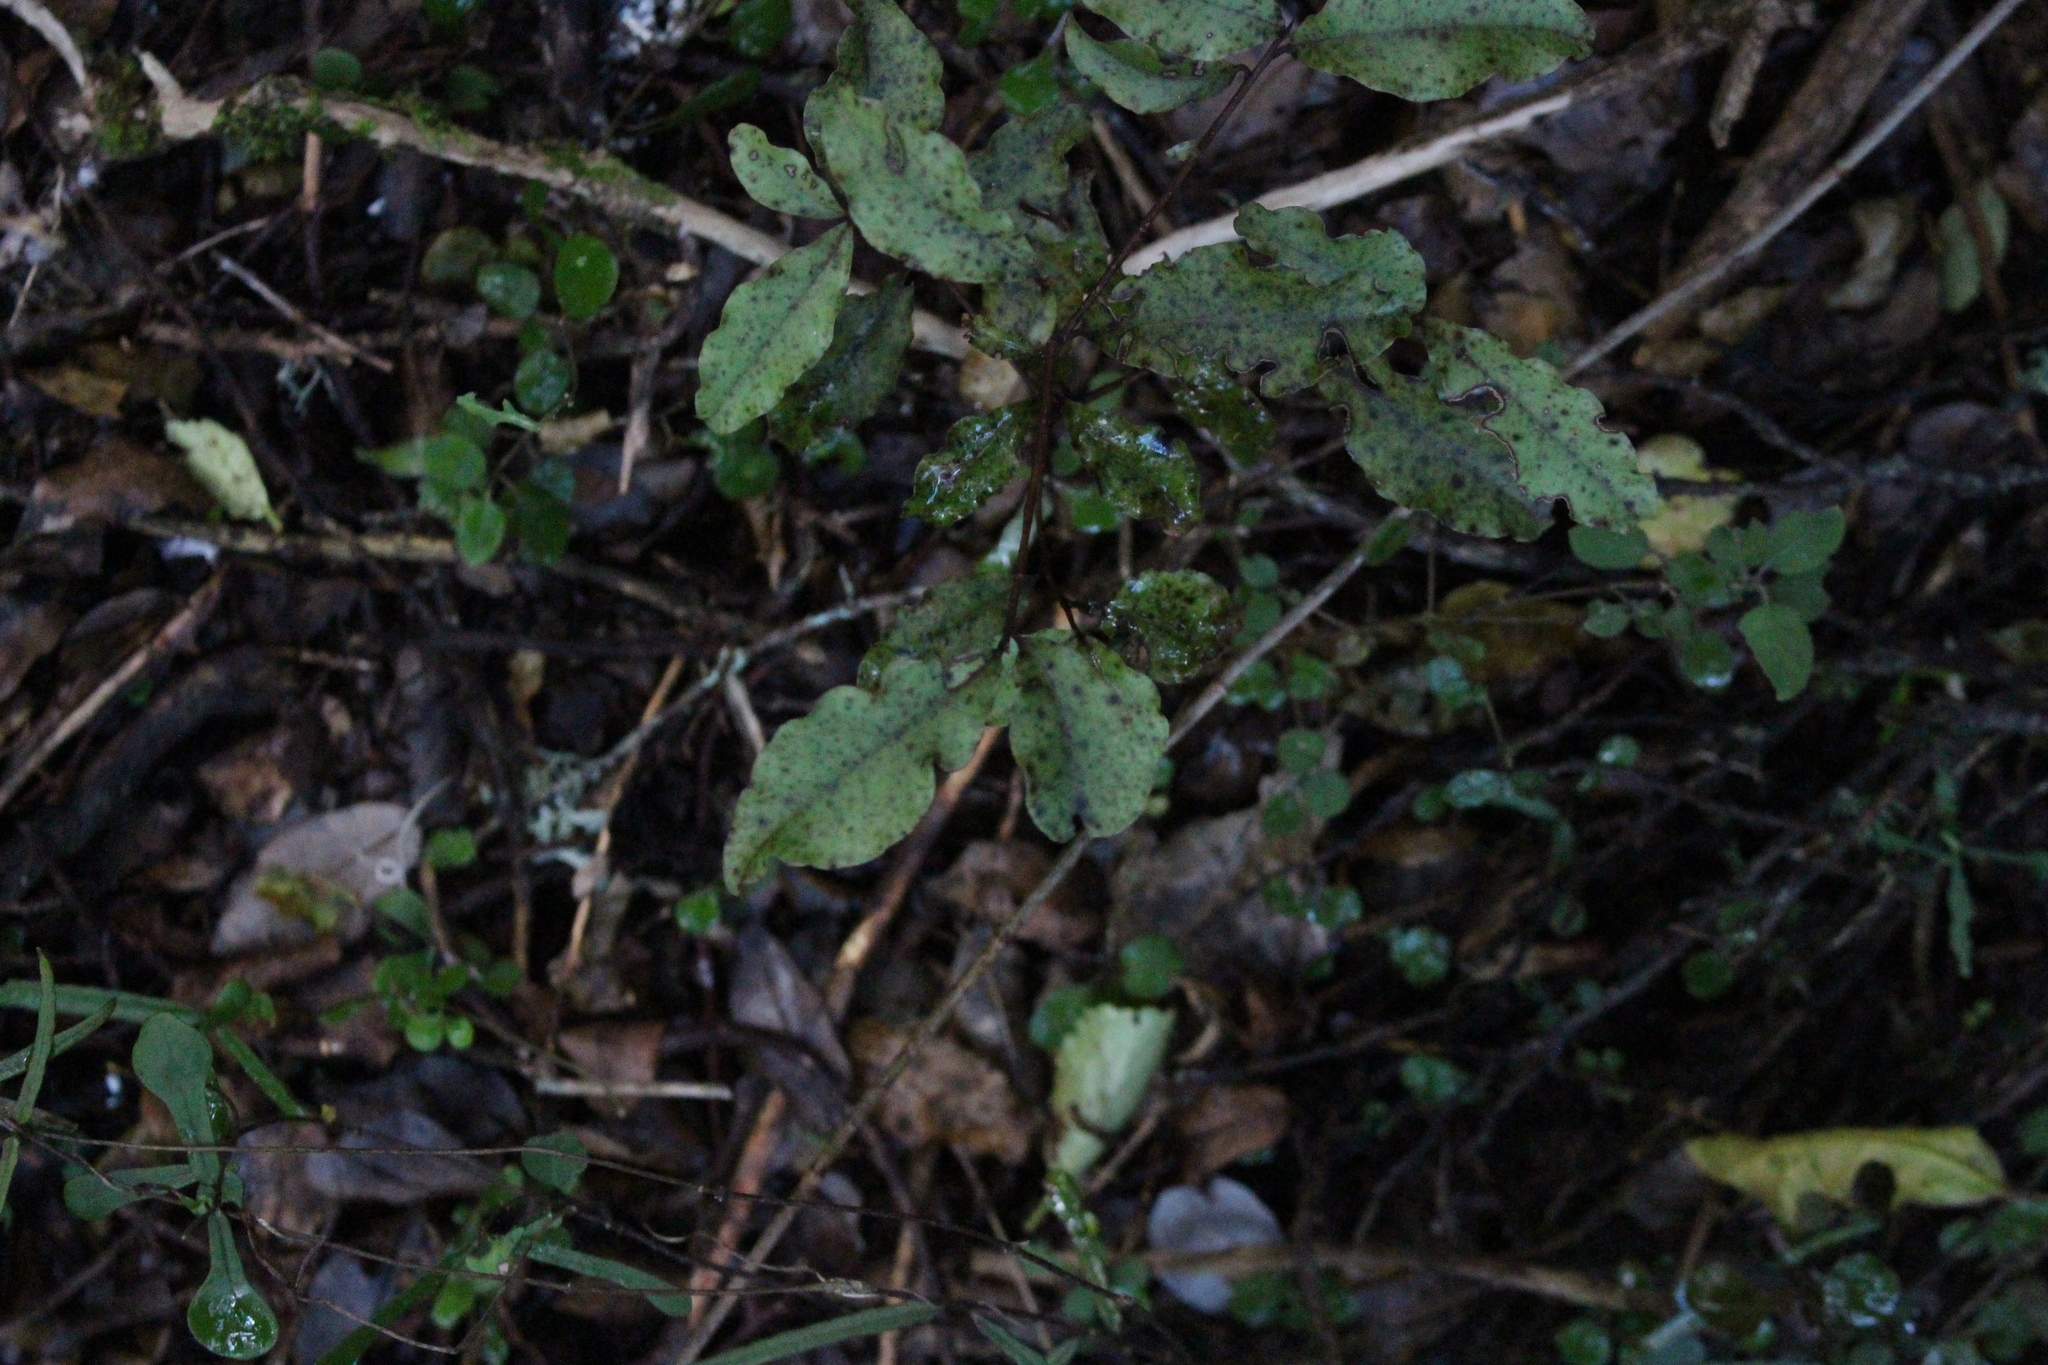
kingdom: Plantae
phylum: Tracheophyta
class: Magnoliopsida
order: Ericales
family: Primulaceae
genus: Myrsine
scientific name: Myrsine australis
